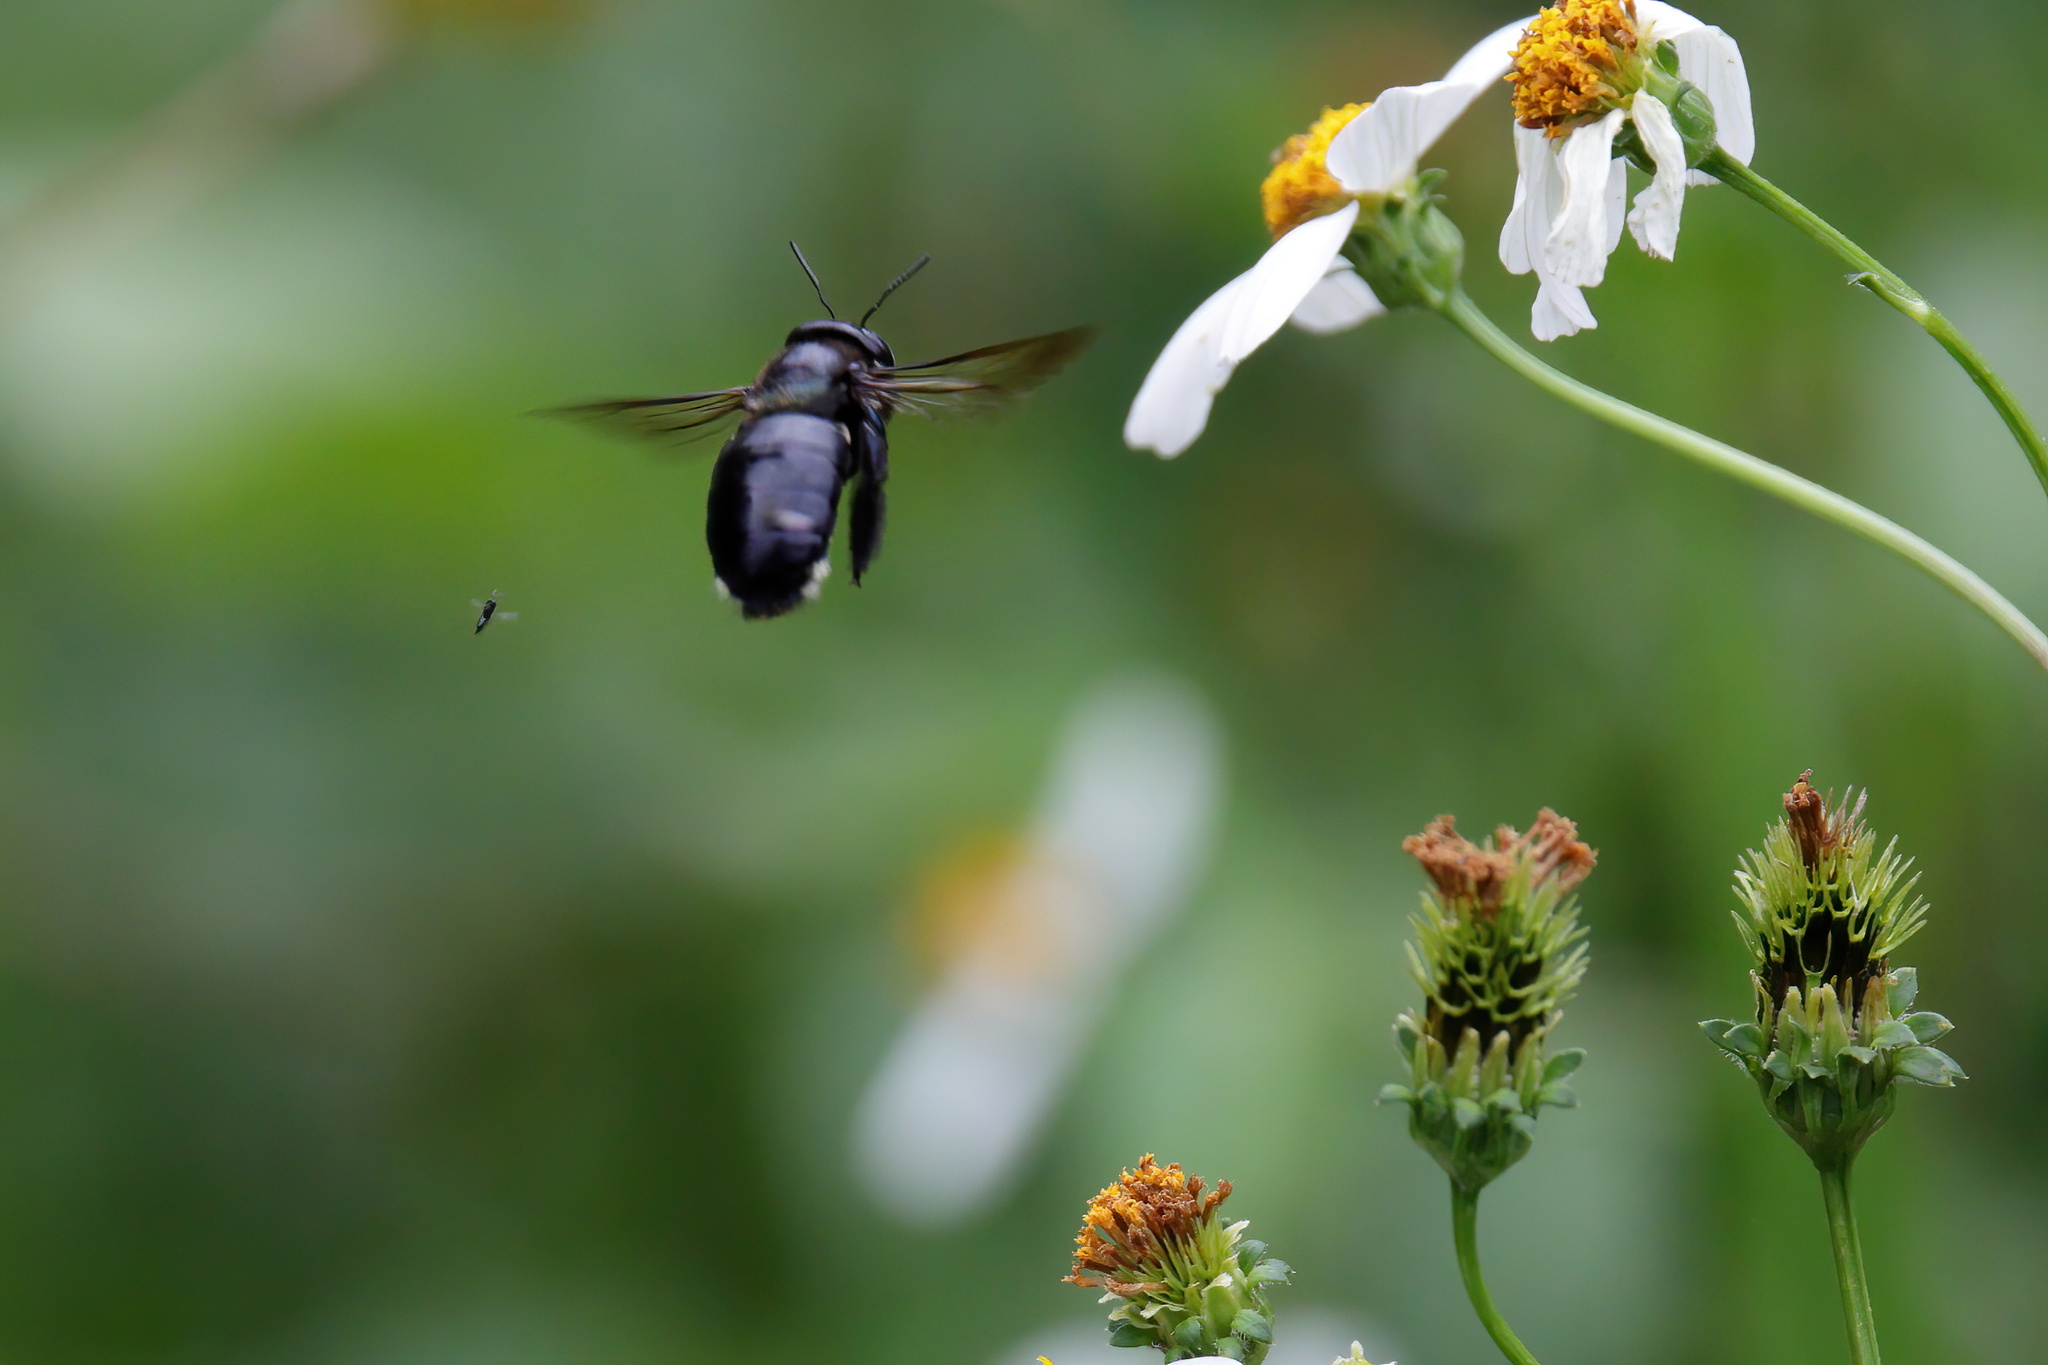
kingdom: Animalia
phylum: Arthropoda
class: Insecta
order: Hymenoptera
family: Apidae
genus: Xylocopa
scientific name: Xylocopa micans
